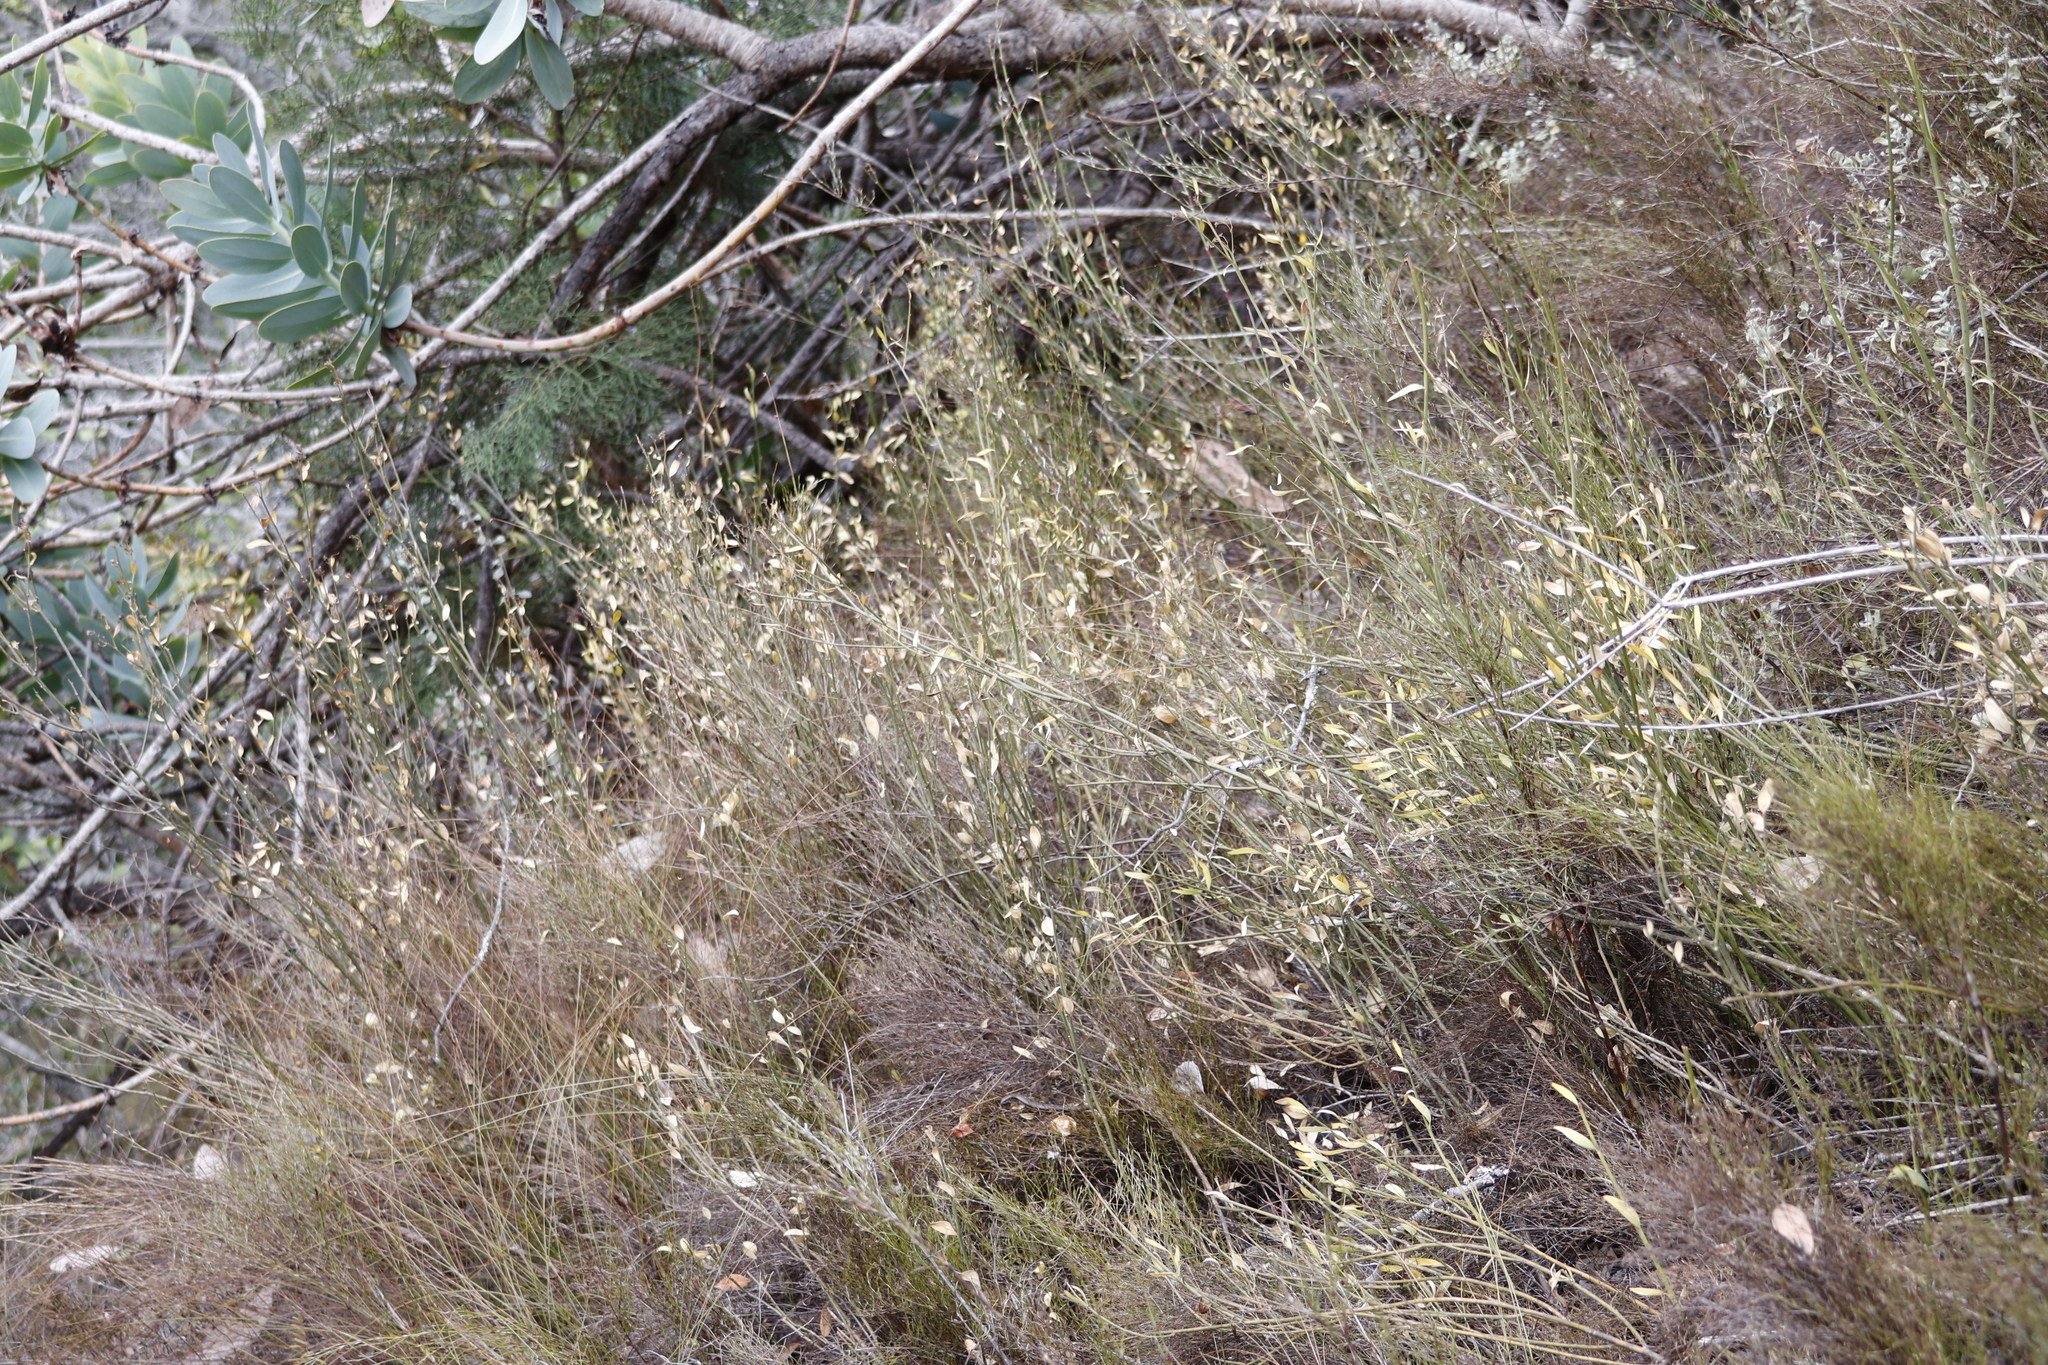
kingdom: Plantae
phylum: Tracheophyta
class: Magnoliopsida
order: Solanales
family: Montiniaceae
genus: Montinia
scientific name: Montinia caryophyllacea
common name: Wild clove-bush
